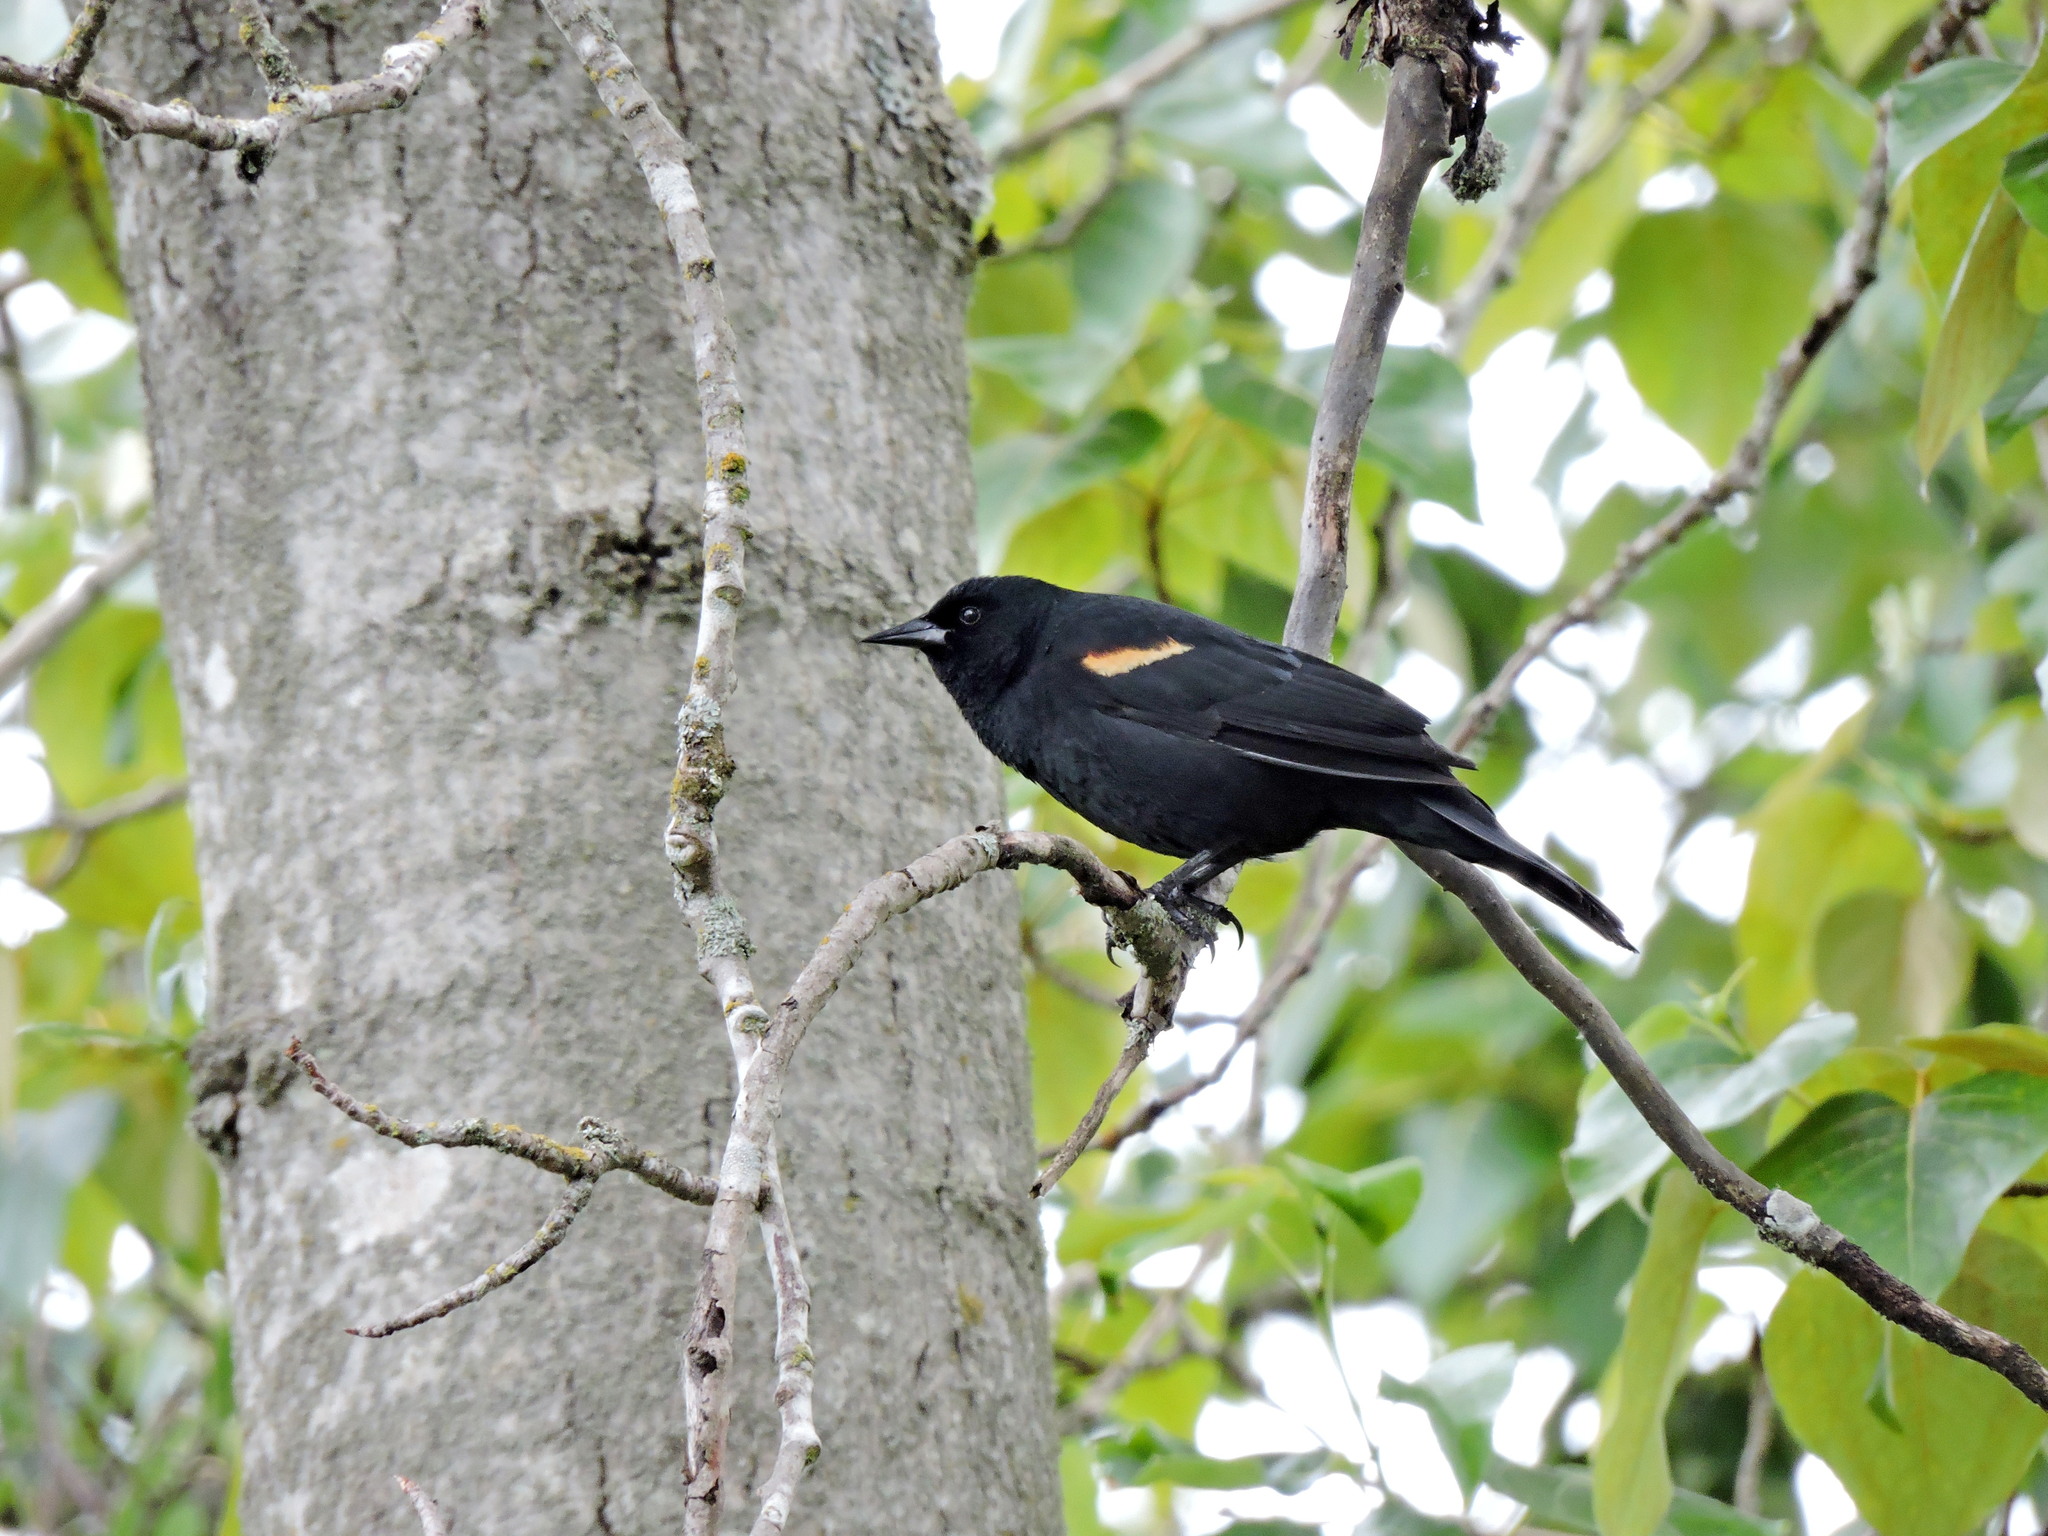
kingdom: Animalia
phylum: Chordata
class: Aves
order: Passeriformes
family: Icteridae
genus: Agelaius
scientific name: Agelaius phoeniceus
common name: Red-winged blackbird
